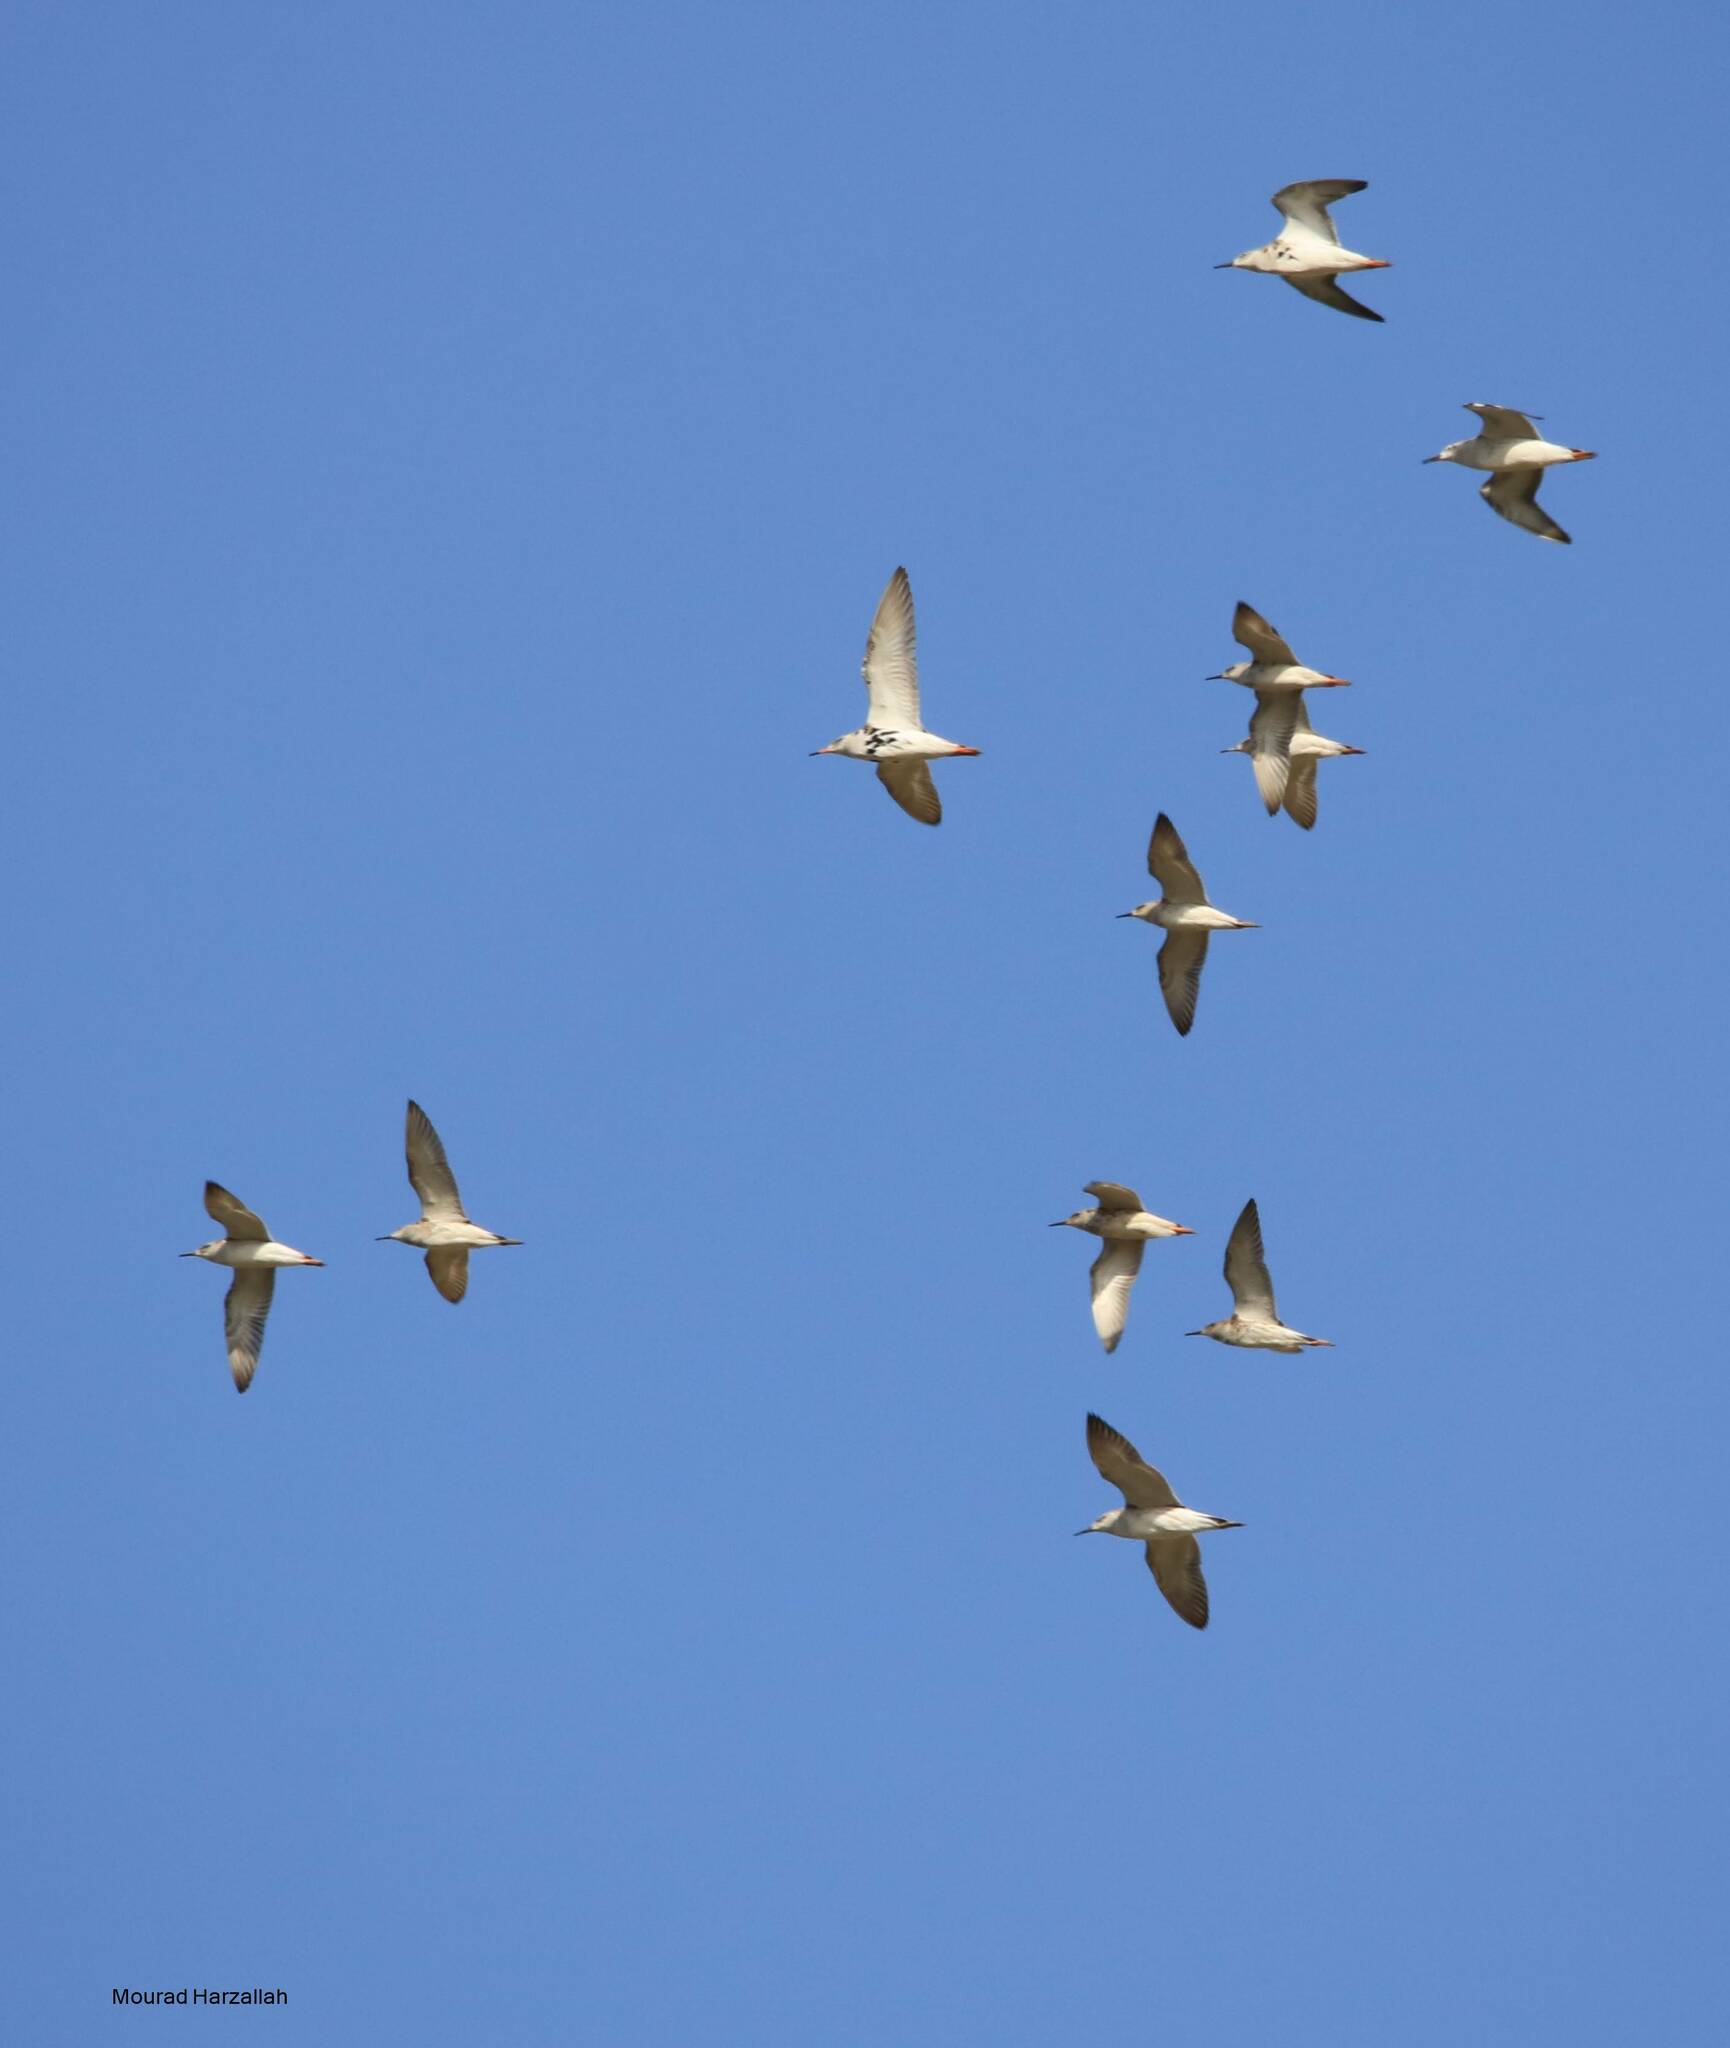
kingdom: Animalia
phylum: Chordata
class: Aves
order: Charadriiformes
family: Scolopacidae
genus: Calidris
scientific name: Calidris pugnax
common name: Ruff
